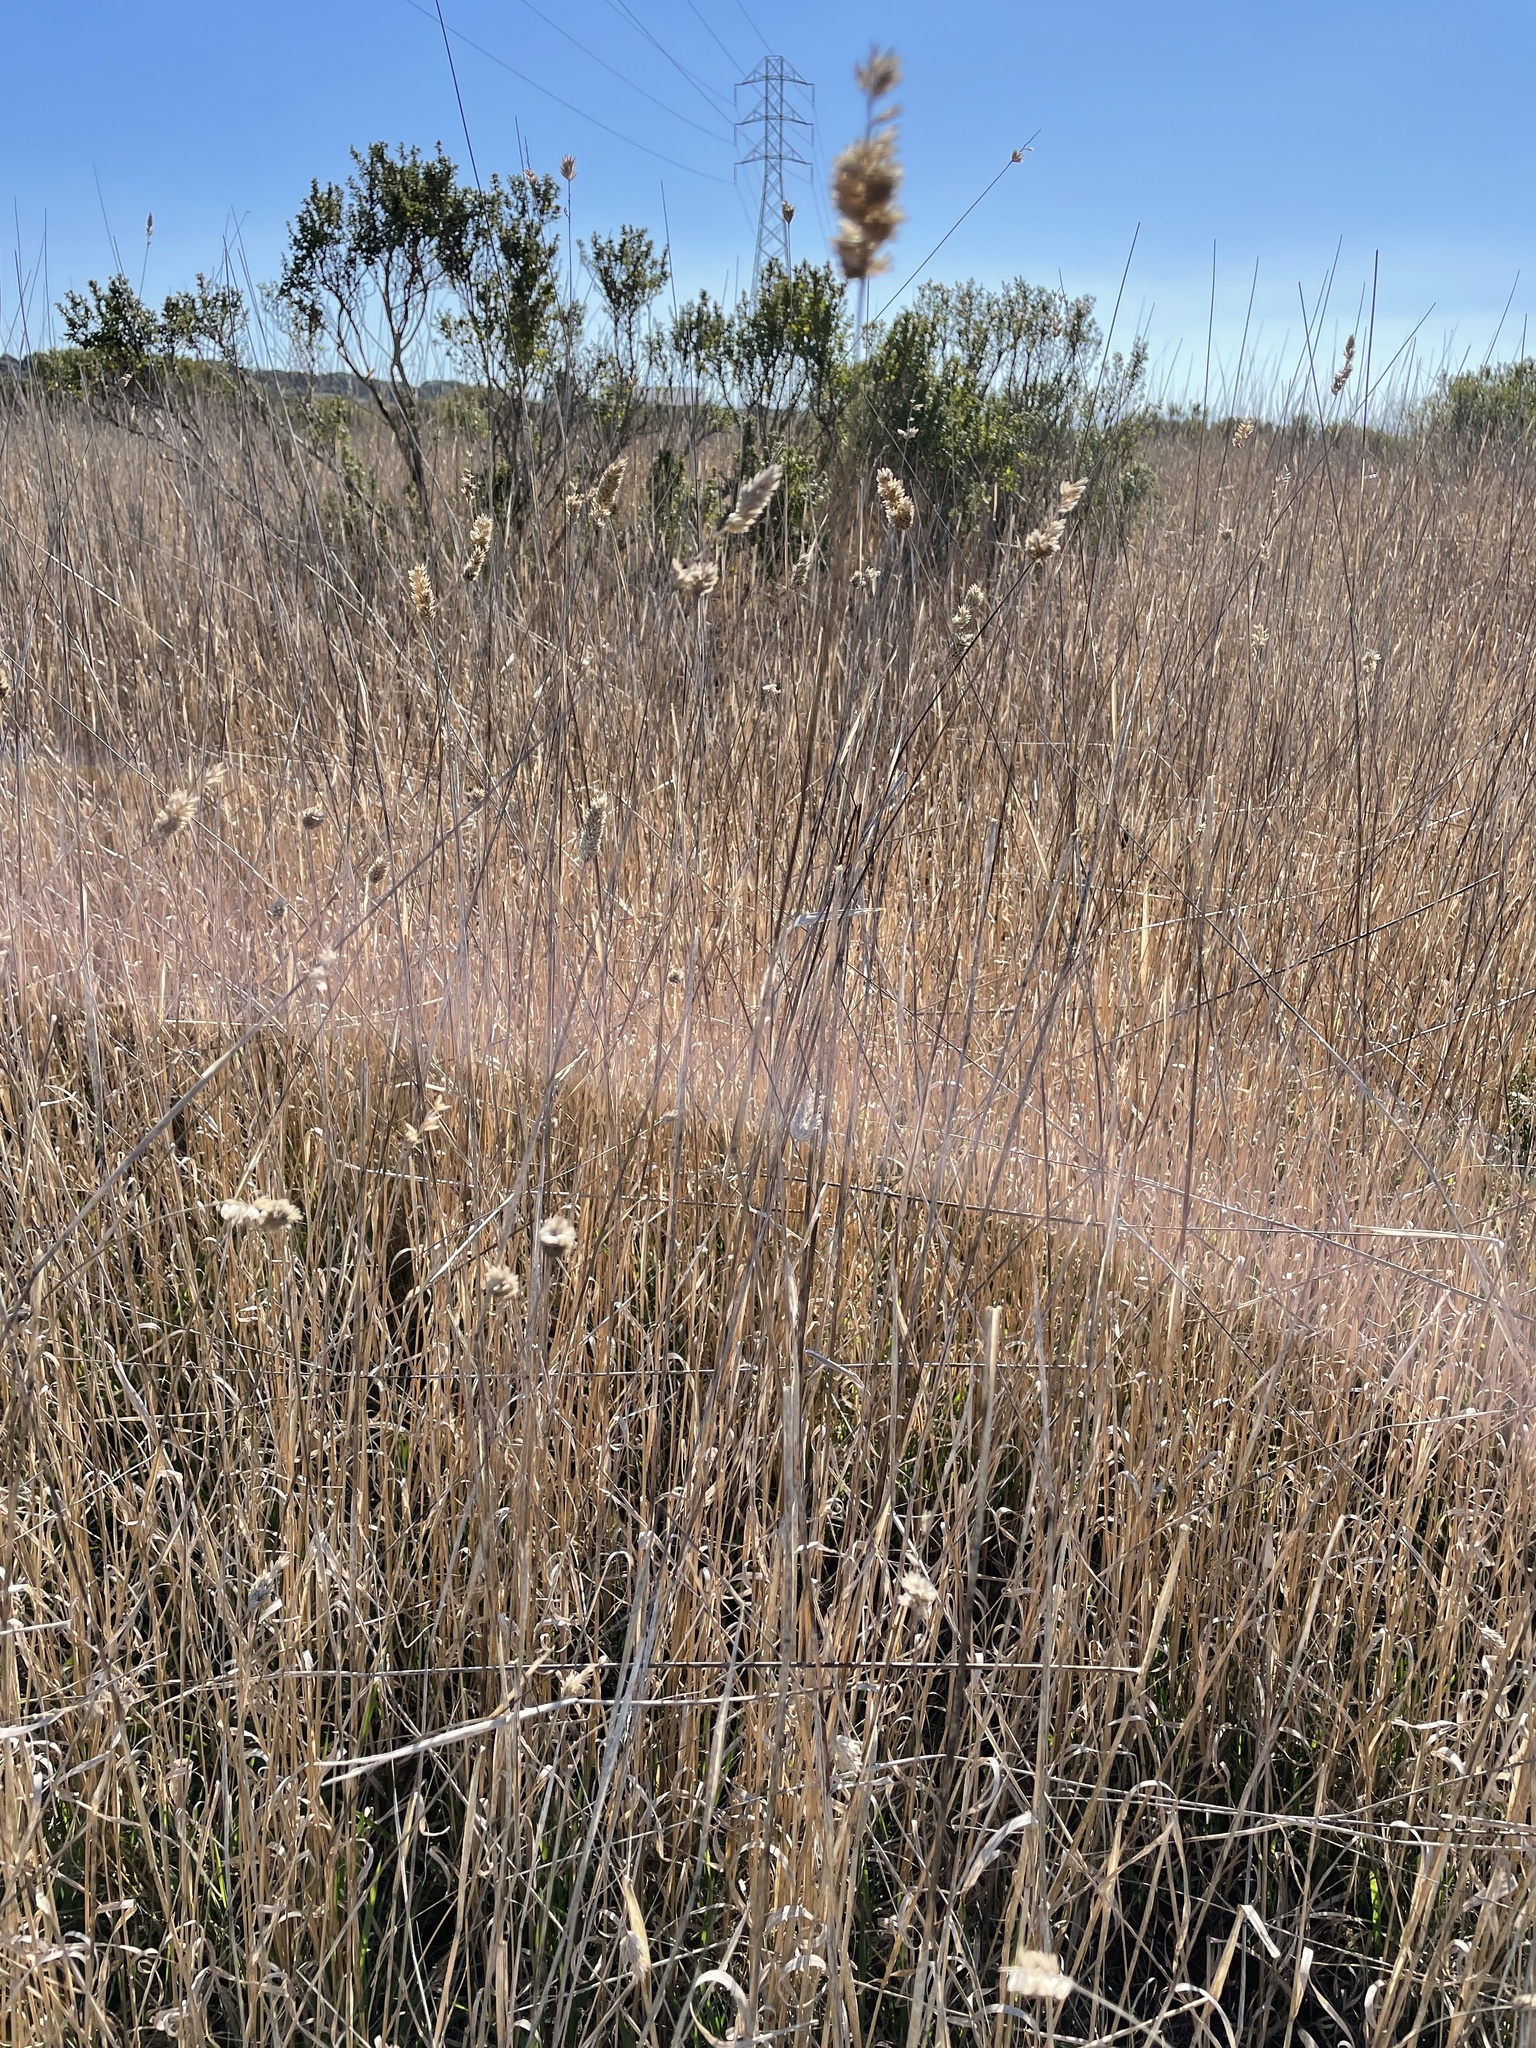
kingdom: Plantae
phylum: Tracheophyta
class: Liliopsida
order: Poales
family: Poaceae
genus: Phalaris
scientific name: Phalaris aquatica
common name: Bulbous canary-grass
